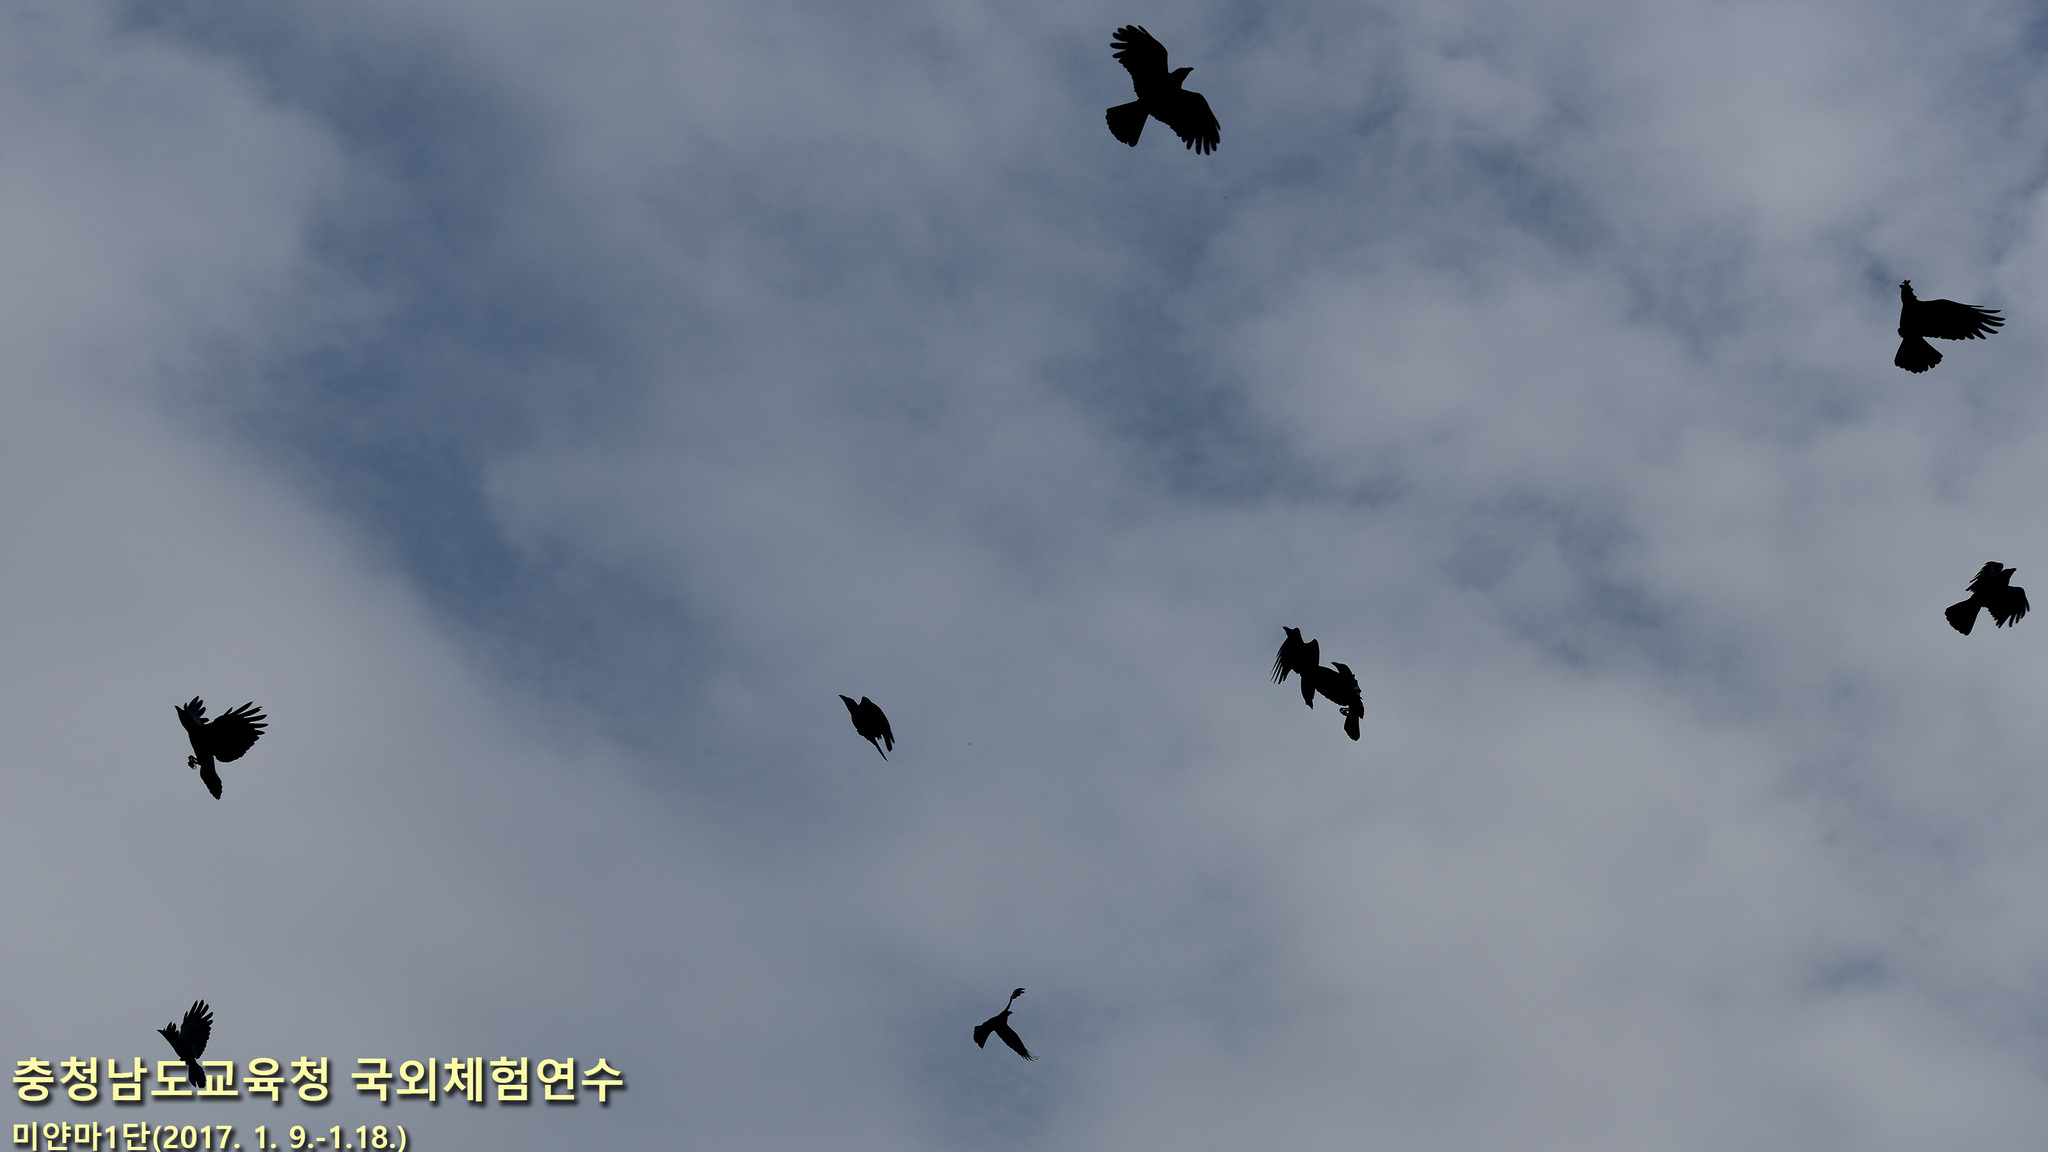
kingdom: Animalia
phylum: Chordata
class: Aves
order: Passeriformes
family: Corvidae
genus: Corvus
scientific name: Corvus splendens
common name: House crow
